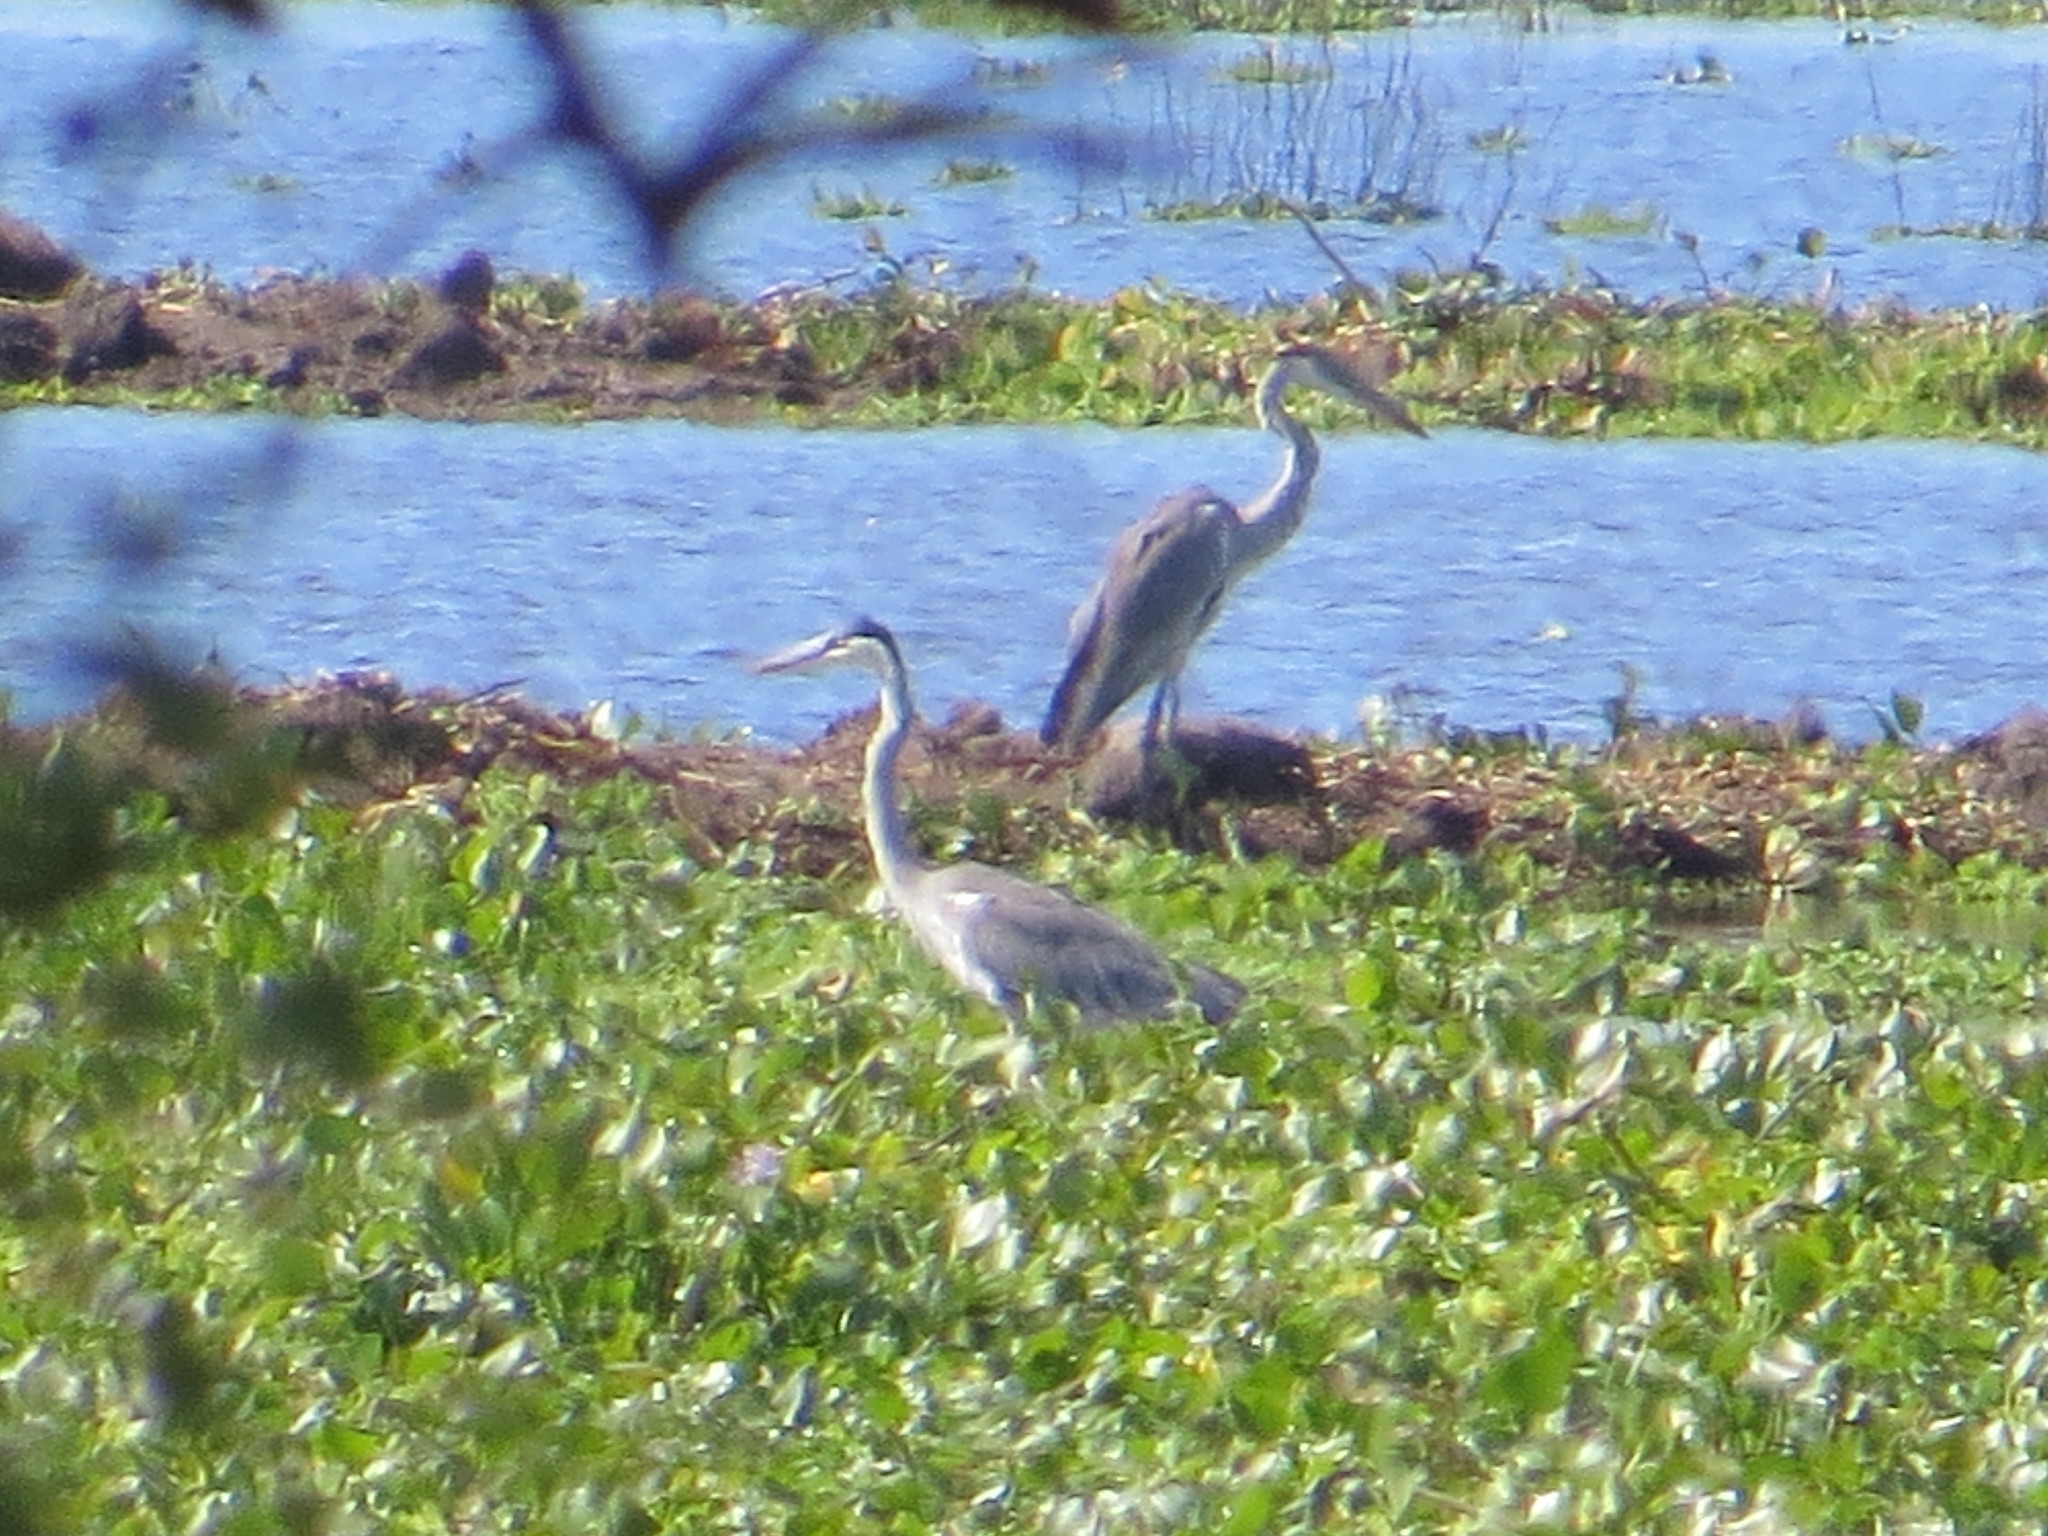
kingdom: Animalia
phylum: Chordata
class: Aves
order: Pelecaniformes
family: Ardeidae
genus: Ardea
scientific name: Ardea cocoi
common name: Cocoi heron
